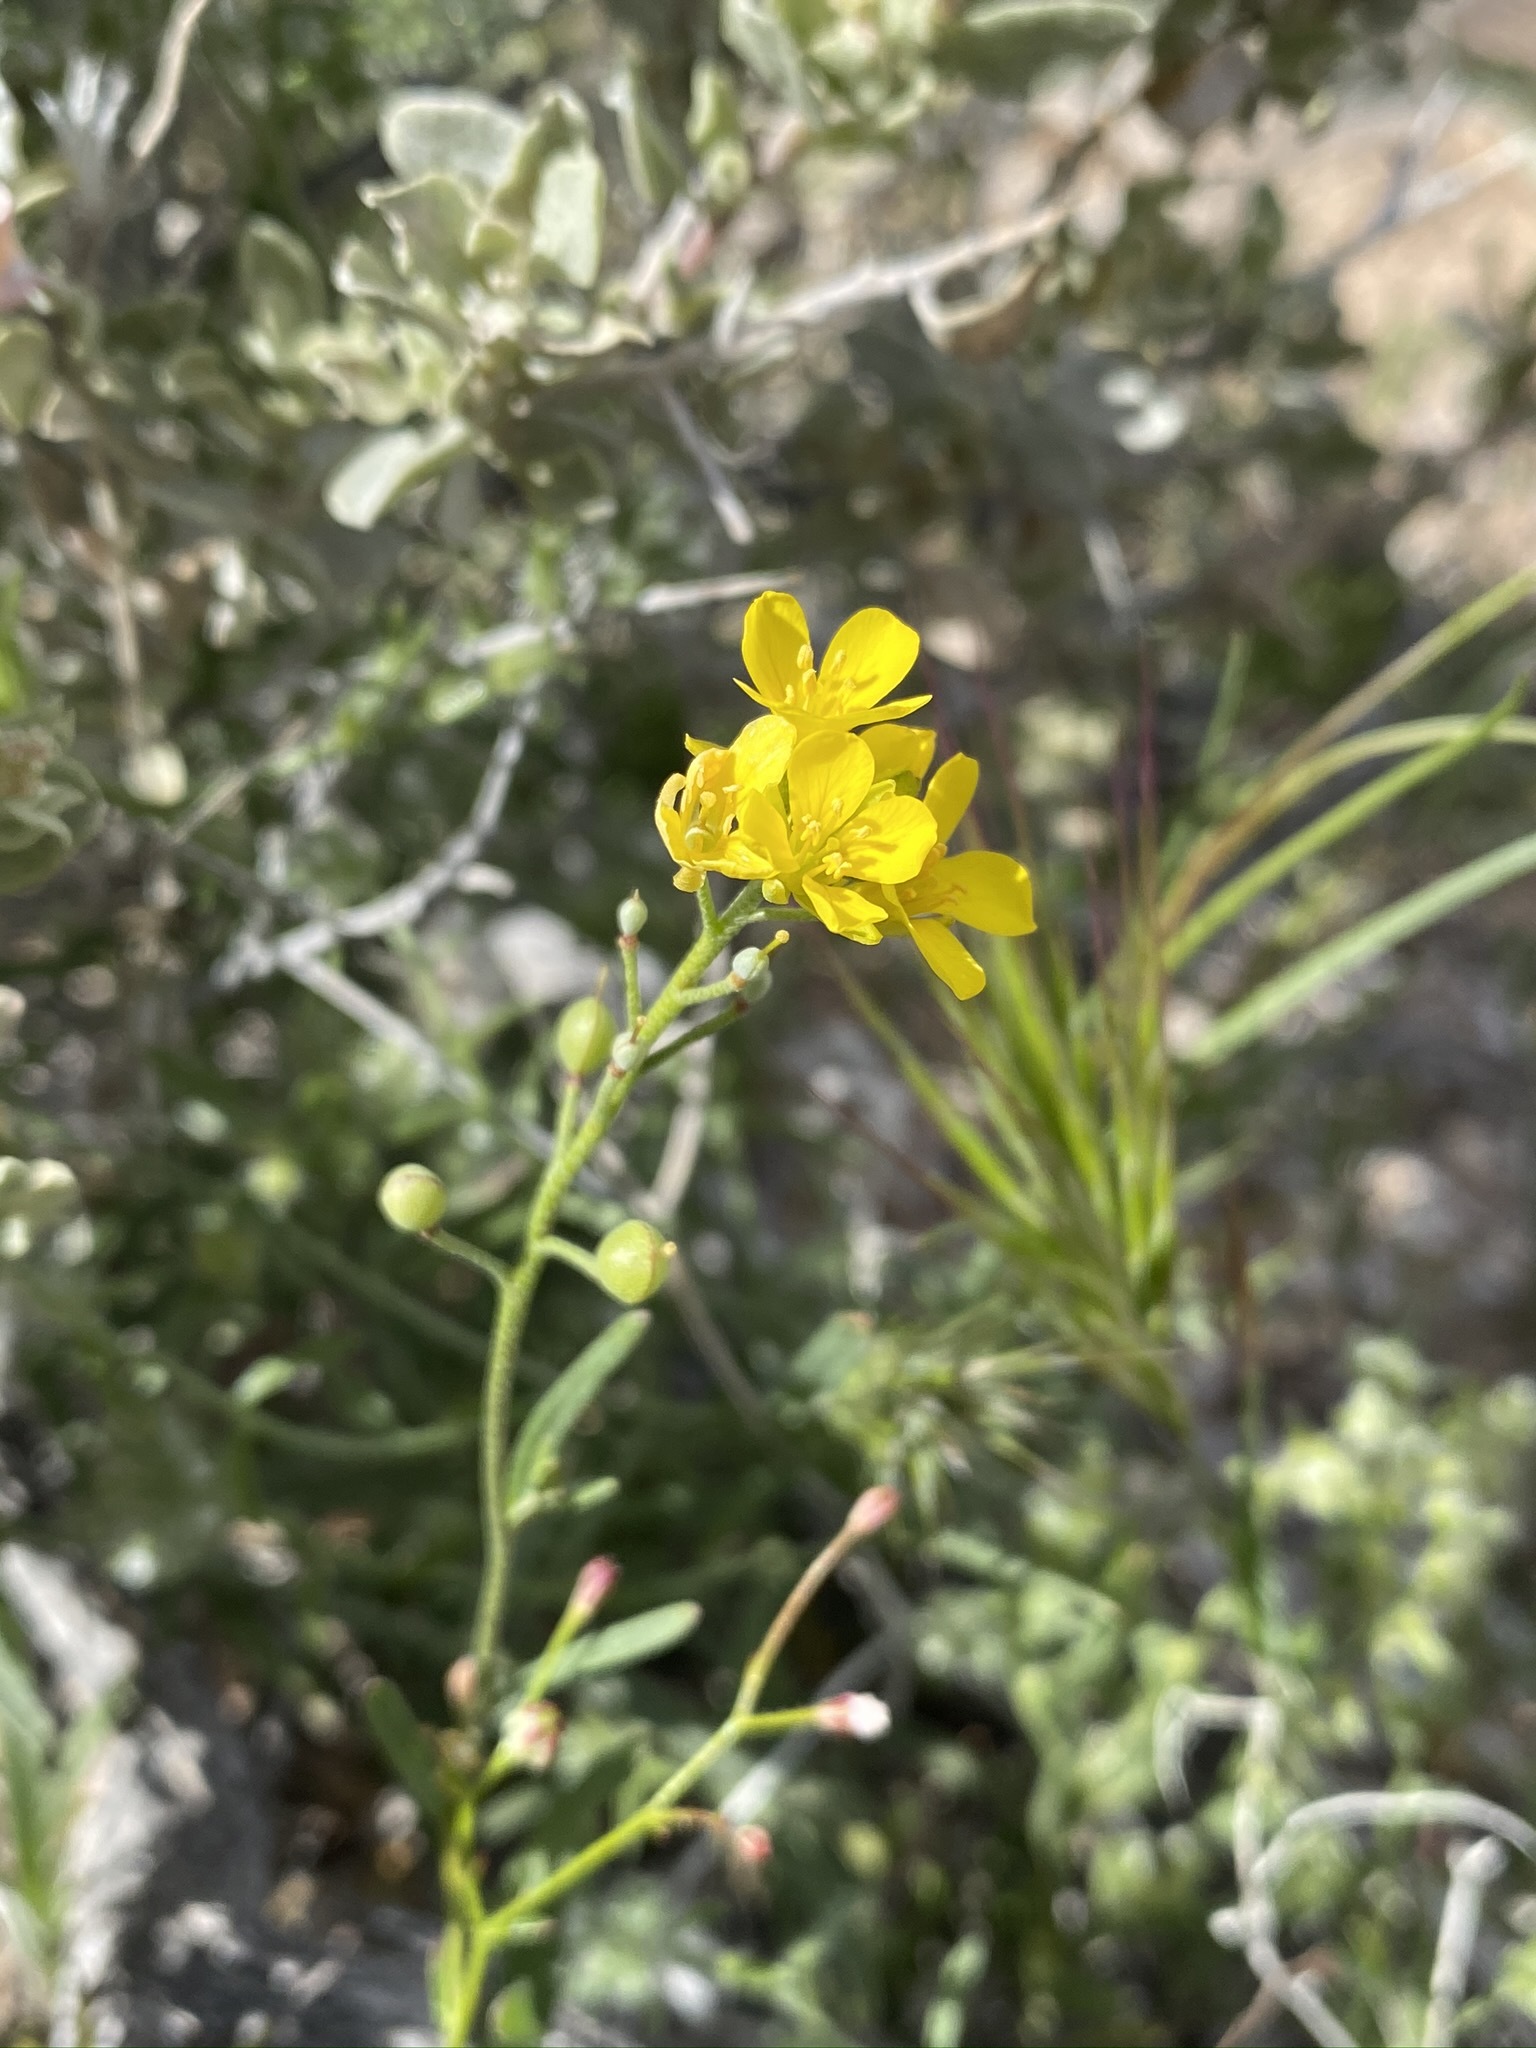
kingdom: Plantae
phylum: Tracheophyta
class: Magnoliopsida
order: Brassicales
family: Brassicaceae
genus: Physaria
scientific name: Physaria tenella
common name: Moapa bladderpod
